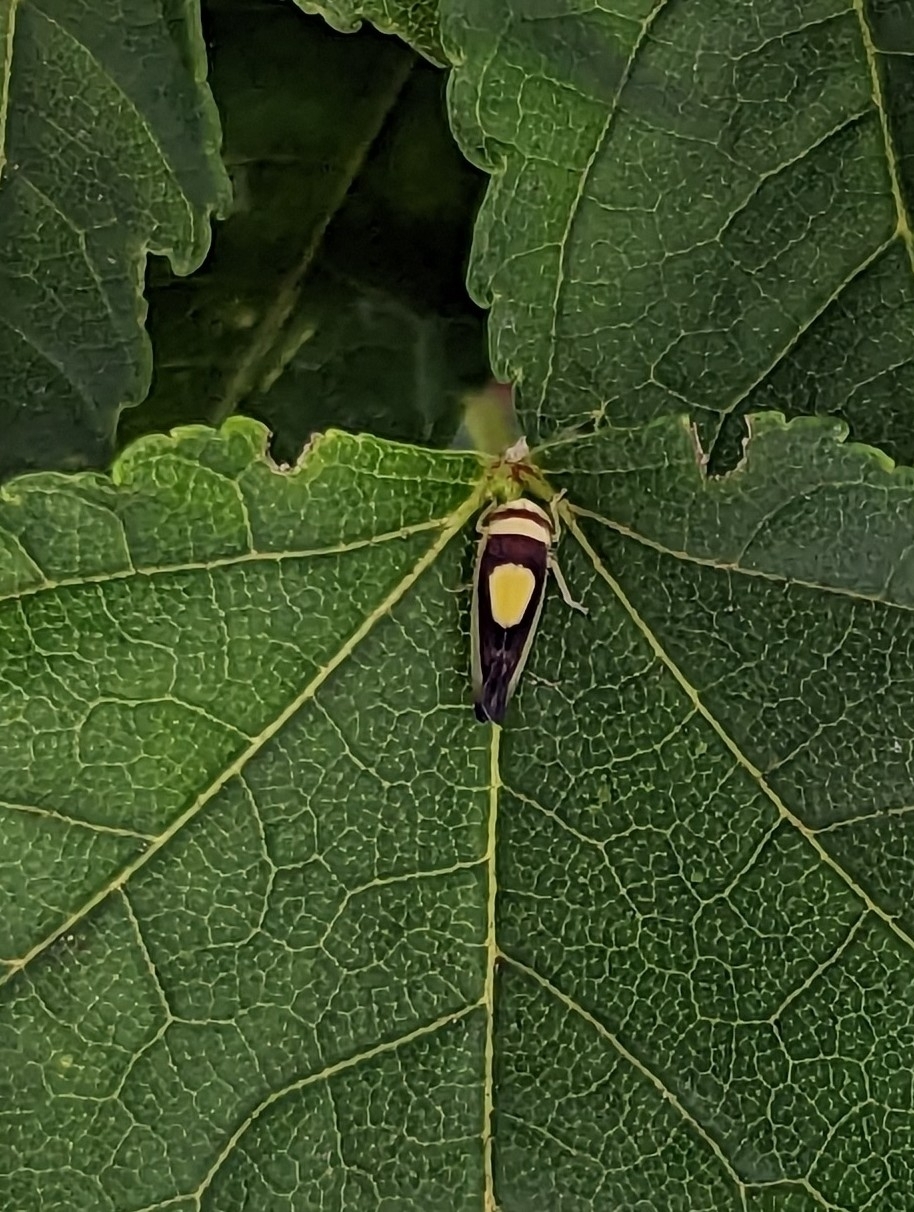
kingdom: Animalia
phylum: Arthropoda
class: Insecta
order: Hemiptera
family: Cicadellidae
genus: Colladonus
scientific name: Colladonus clitellarius
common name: The saddleback leafhopper
